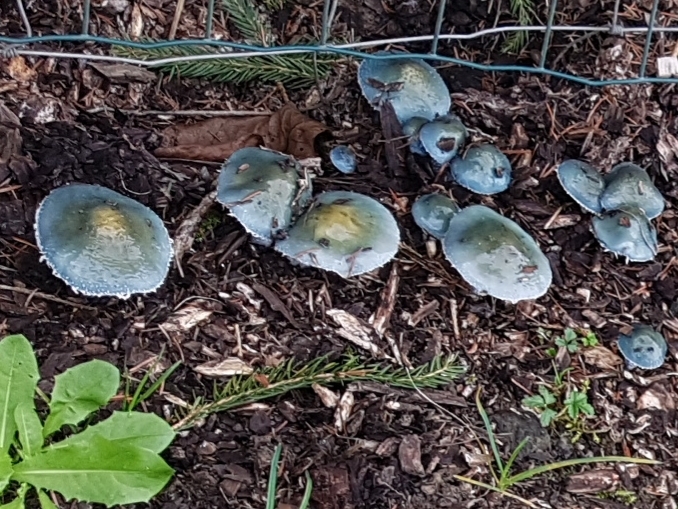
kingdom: Fungi
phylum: Basidiomycota
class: Agaricomycetes
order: Agaricales
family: Strophariaceae
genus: Stropharia
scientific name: Stropharia caerulea
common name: Blue roundhead
